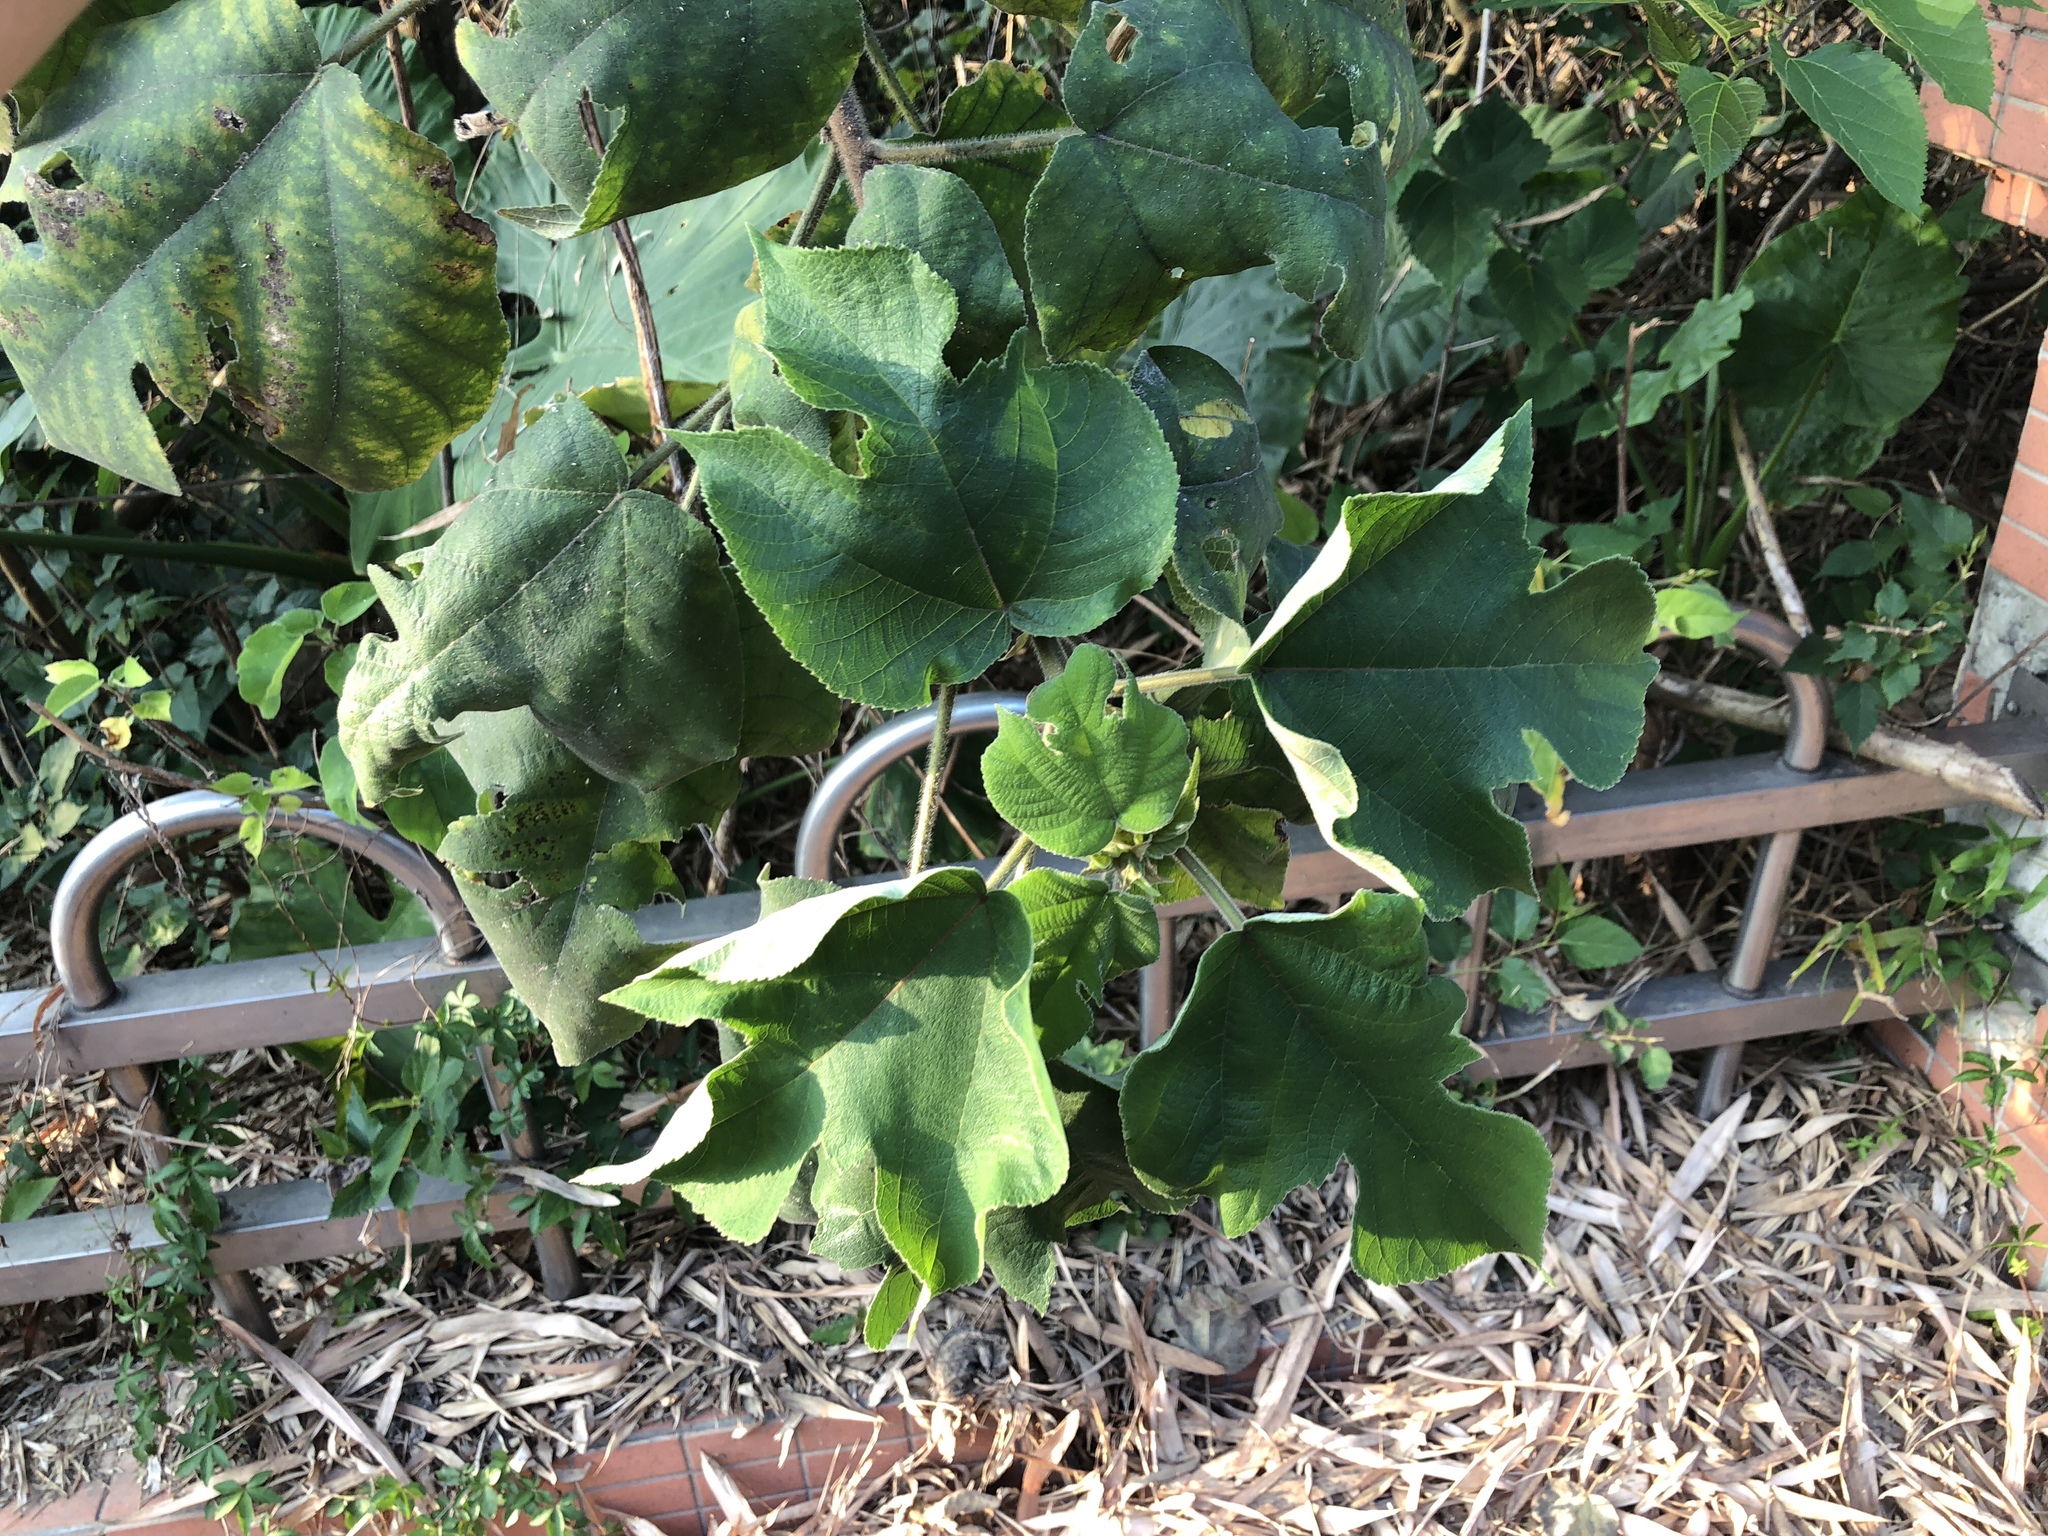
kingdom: Plantae
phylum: Tracheophyta
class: Magnoliopsida
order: Rosales
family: Moraceae
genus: Broussonetia
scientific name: Broussonetia papyrifera
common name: Paper mulberry
